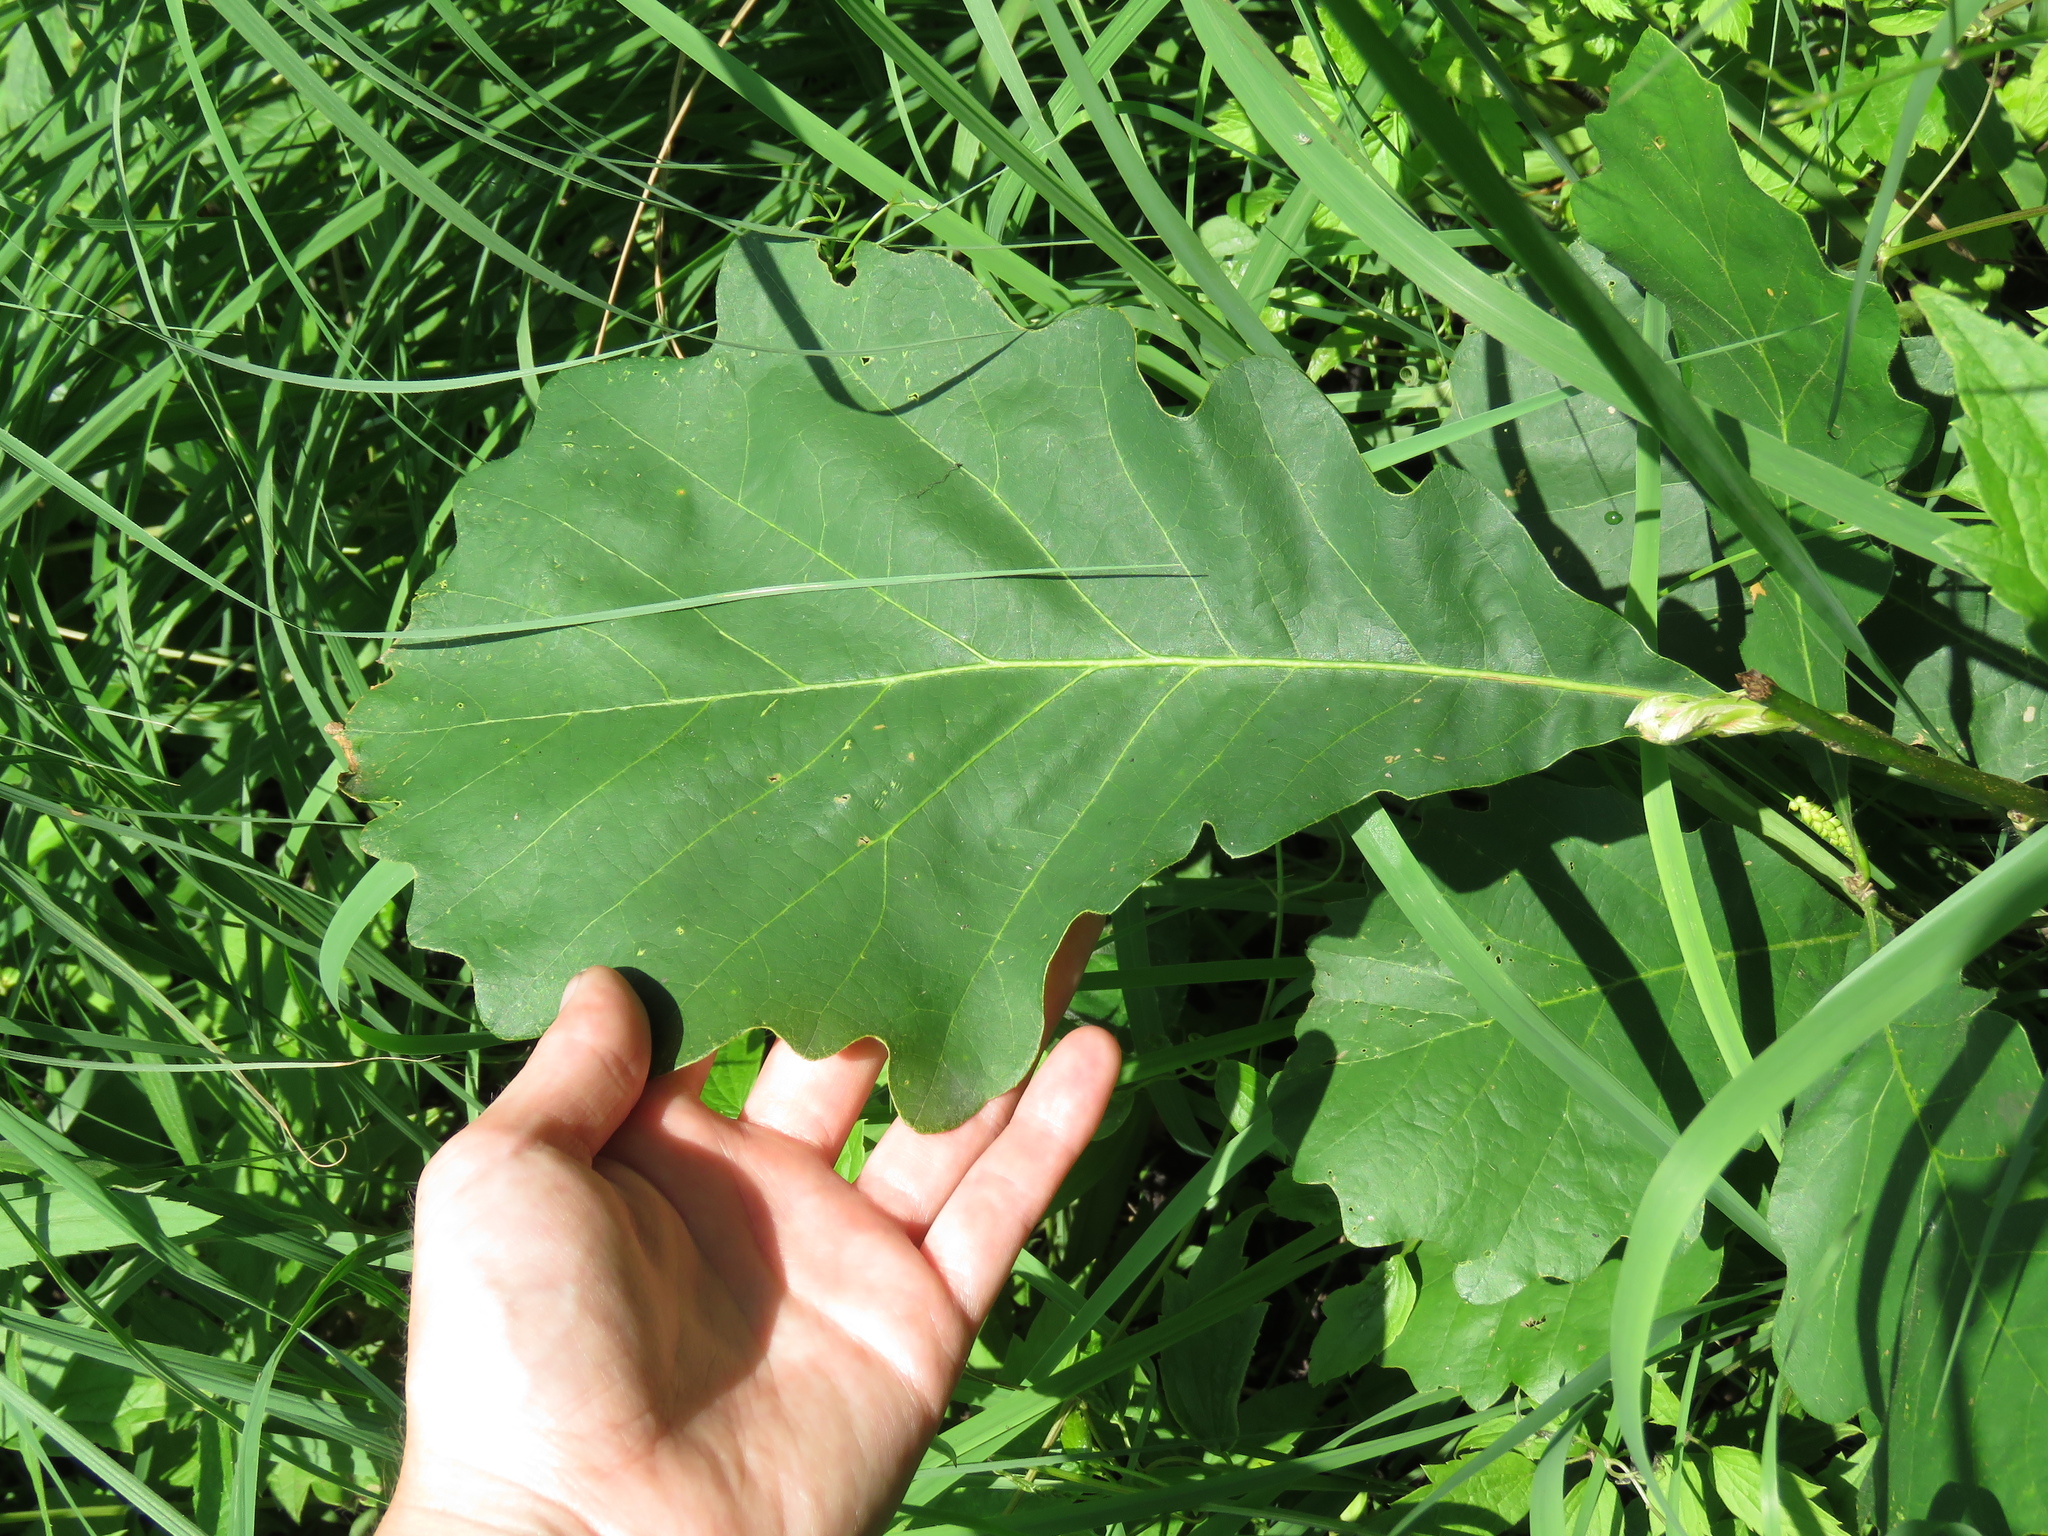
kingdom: Plantae
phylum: Tracheophyta
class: Magnoliopsida
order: Fagales
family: Fagaceae
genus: Quercus
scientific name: Quercus bicolor
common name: Swamp white oak
